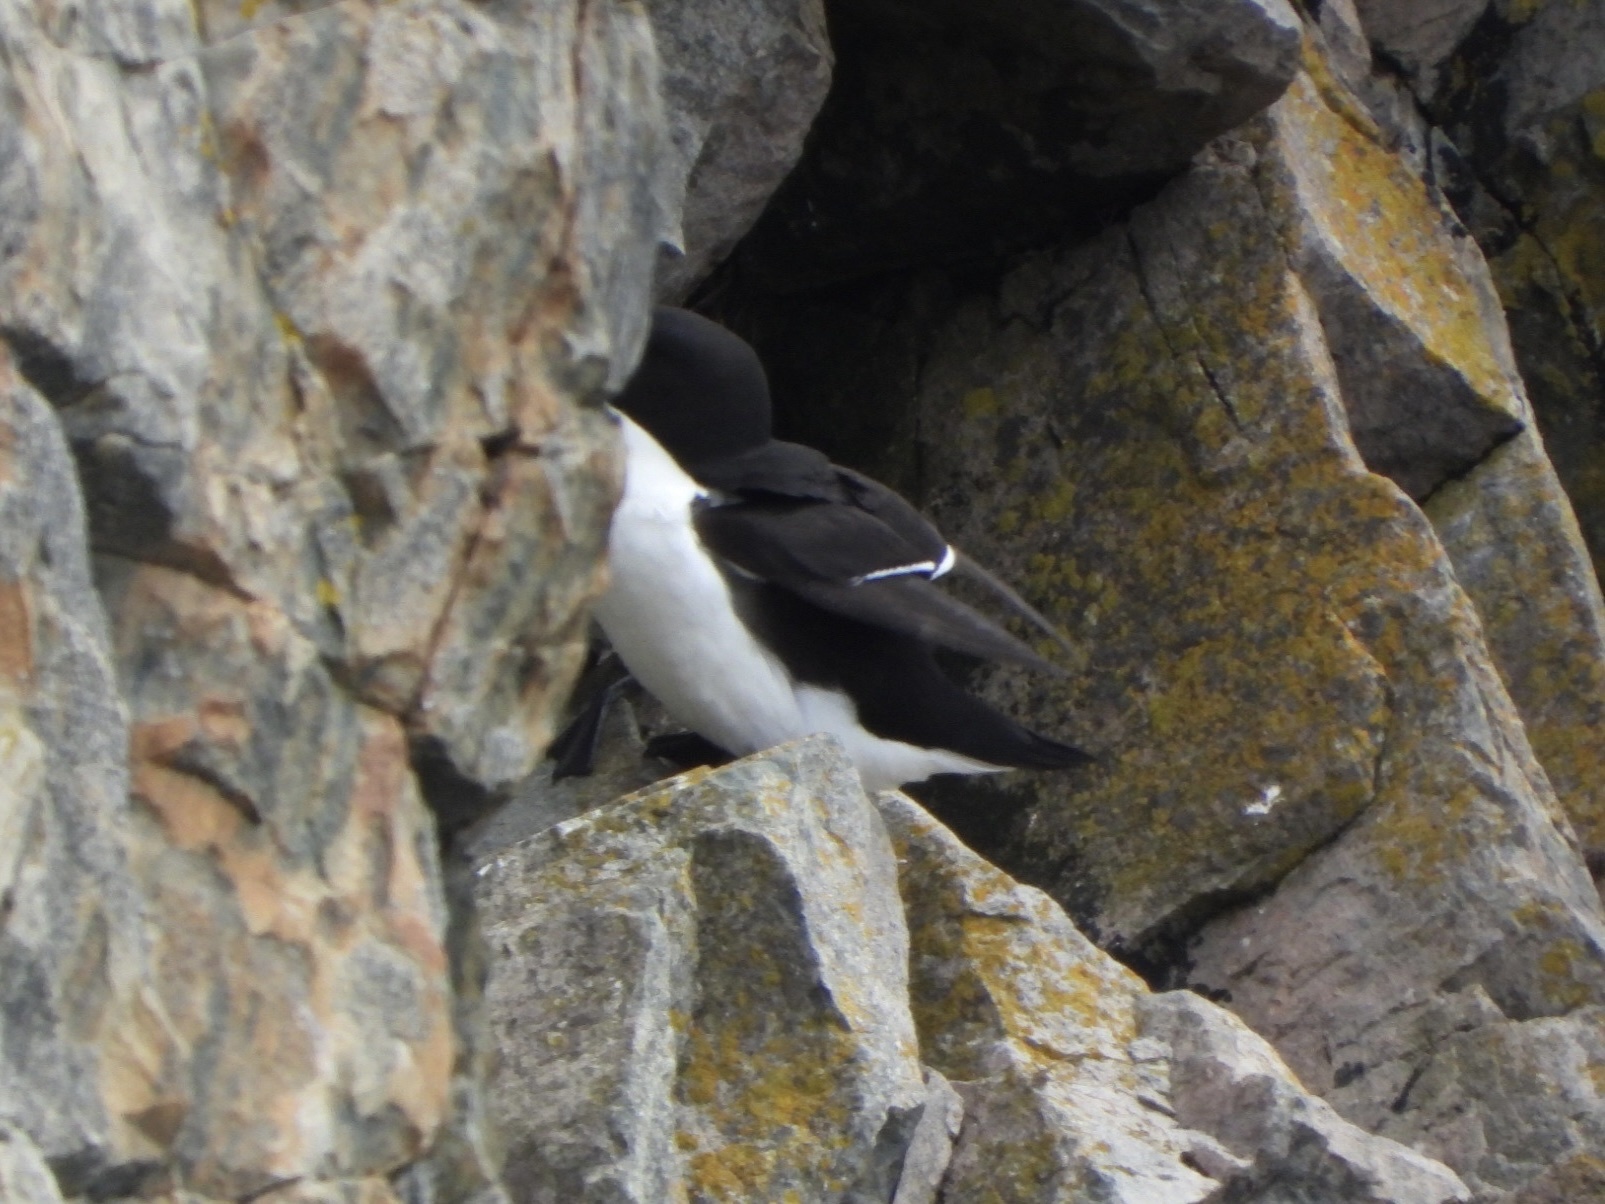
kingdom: Animalia
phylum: Chordata
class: Aves
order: Charadriiformes
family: Alcidae
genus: Alca
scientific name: Alca torda
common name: Razorbill
